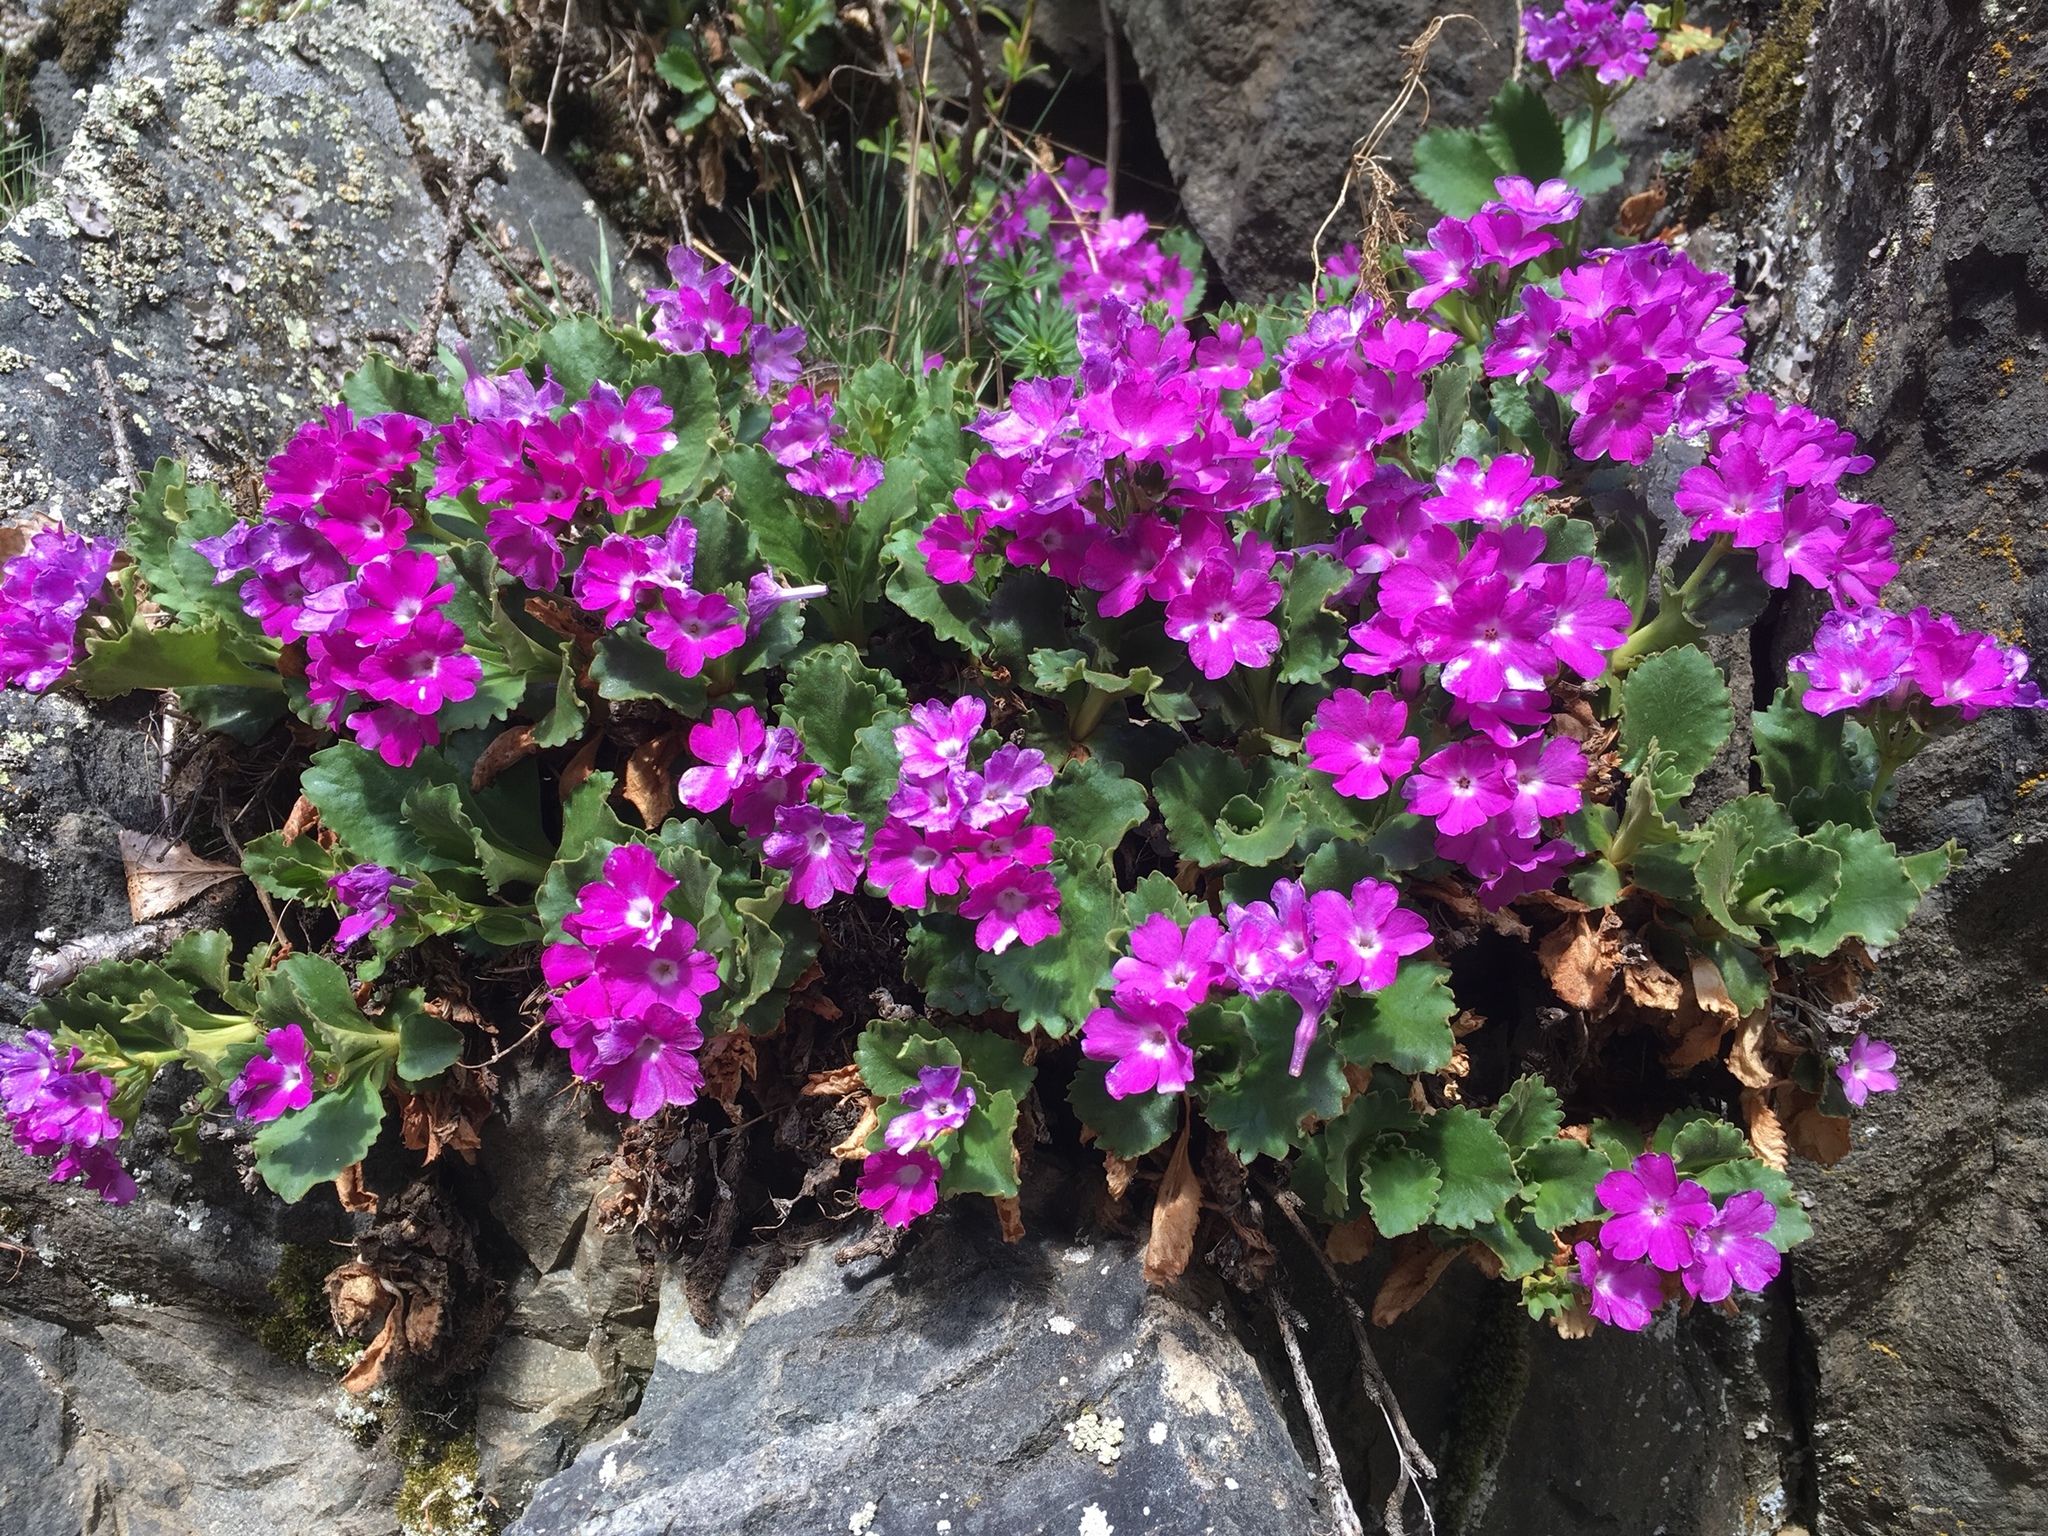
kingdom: Plantae
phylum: Tracheophyta
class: Magnoliopsida
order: Ericales
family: Primulaceae
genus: Primula
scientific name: Primula hirsuta
